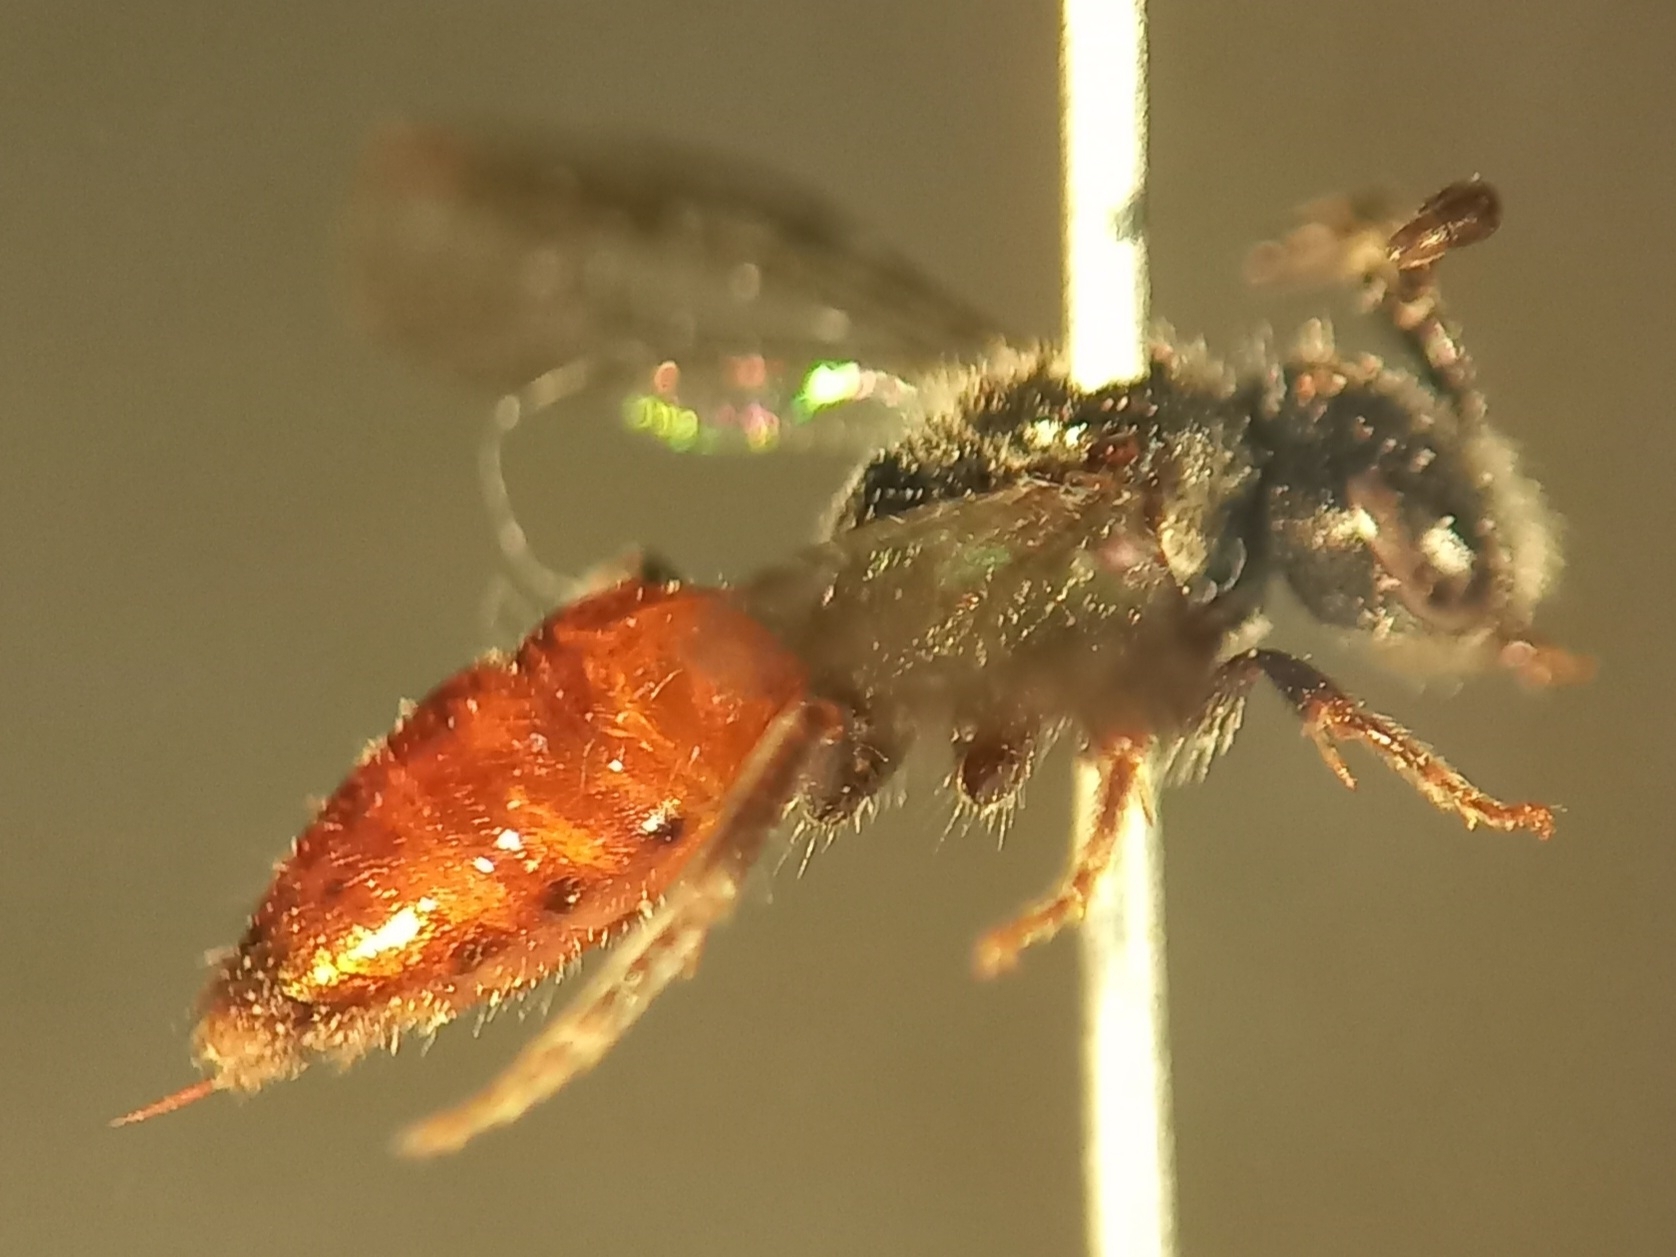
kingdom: Animalia
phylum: Arthropoda
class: Insecta
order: Hymenoptera
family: Halictidae
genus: Sphecodes
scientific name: Sphecodes majalis
